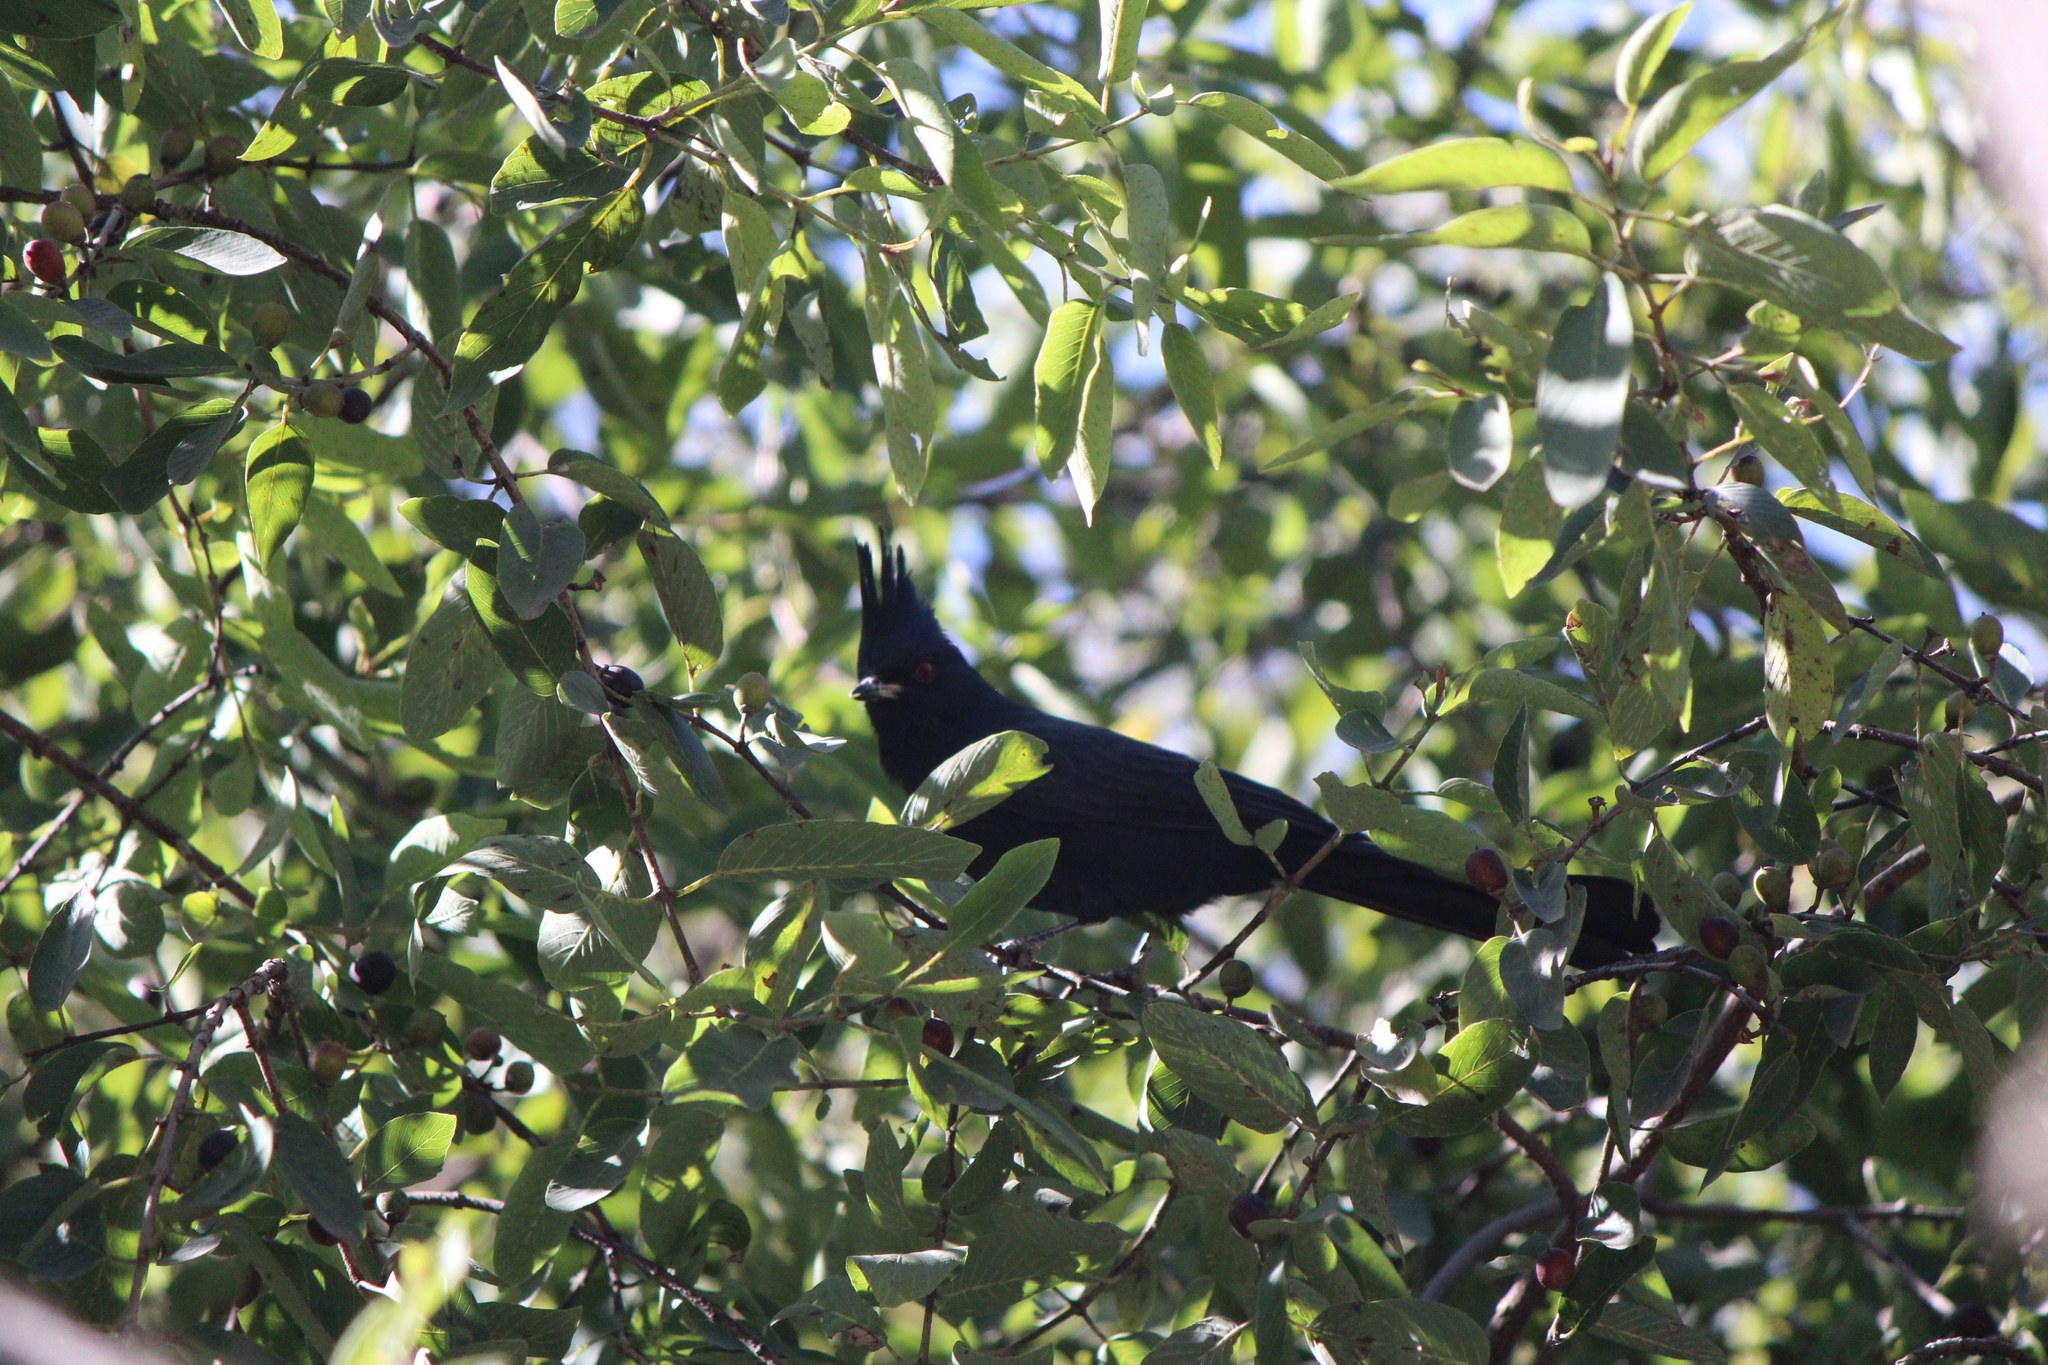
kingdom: Animalia
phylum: Chordata
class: Aves
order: Passeriformes
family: Ptilogonatidae
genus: Phainopepla
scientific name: Phainopepla nitens
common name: Phainopepla
